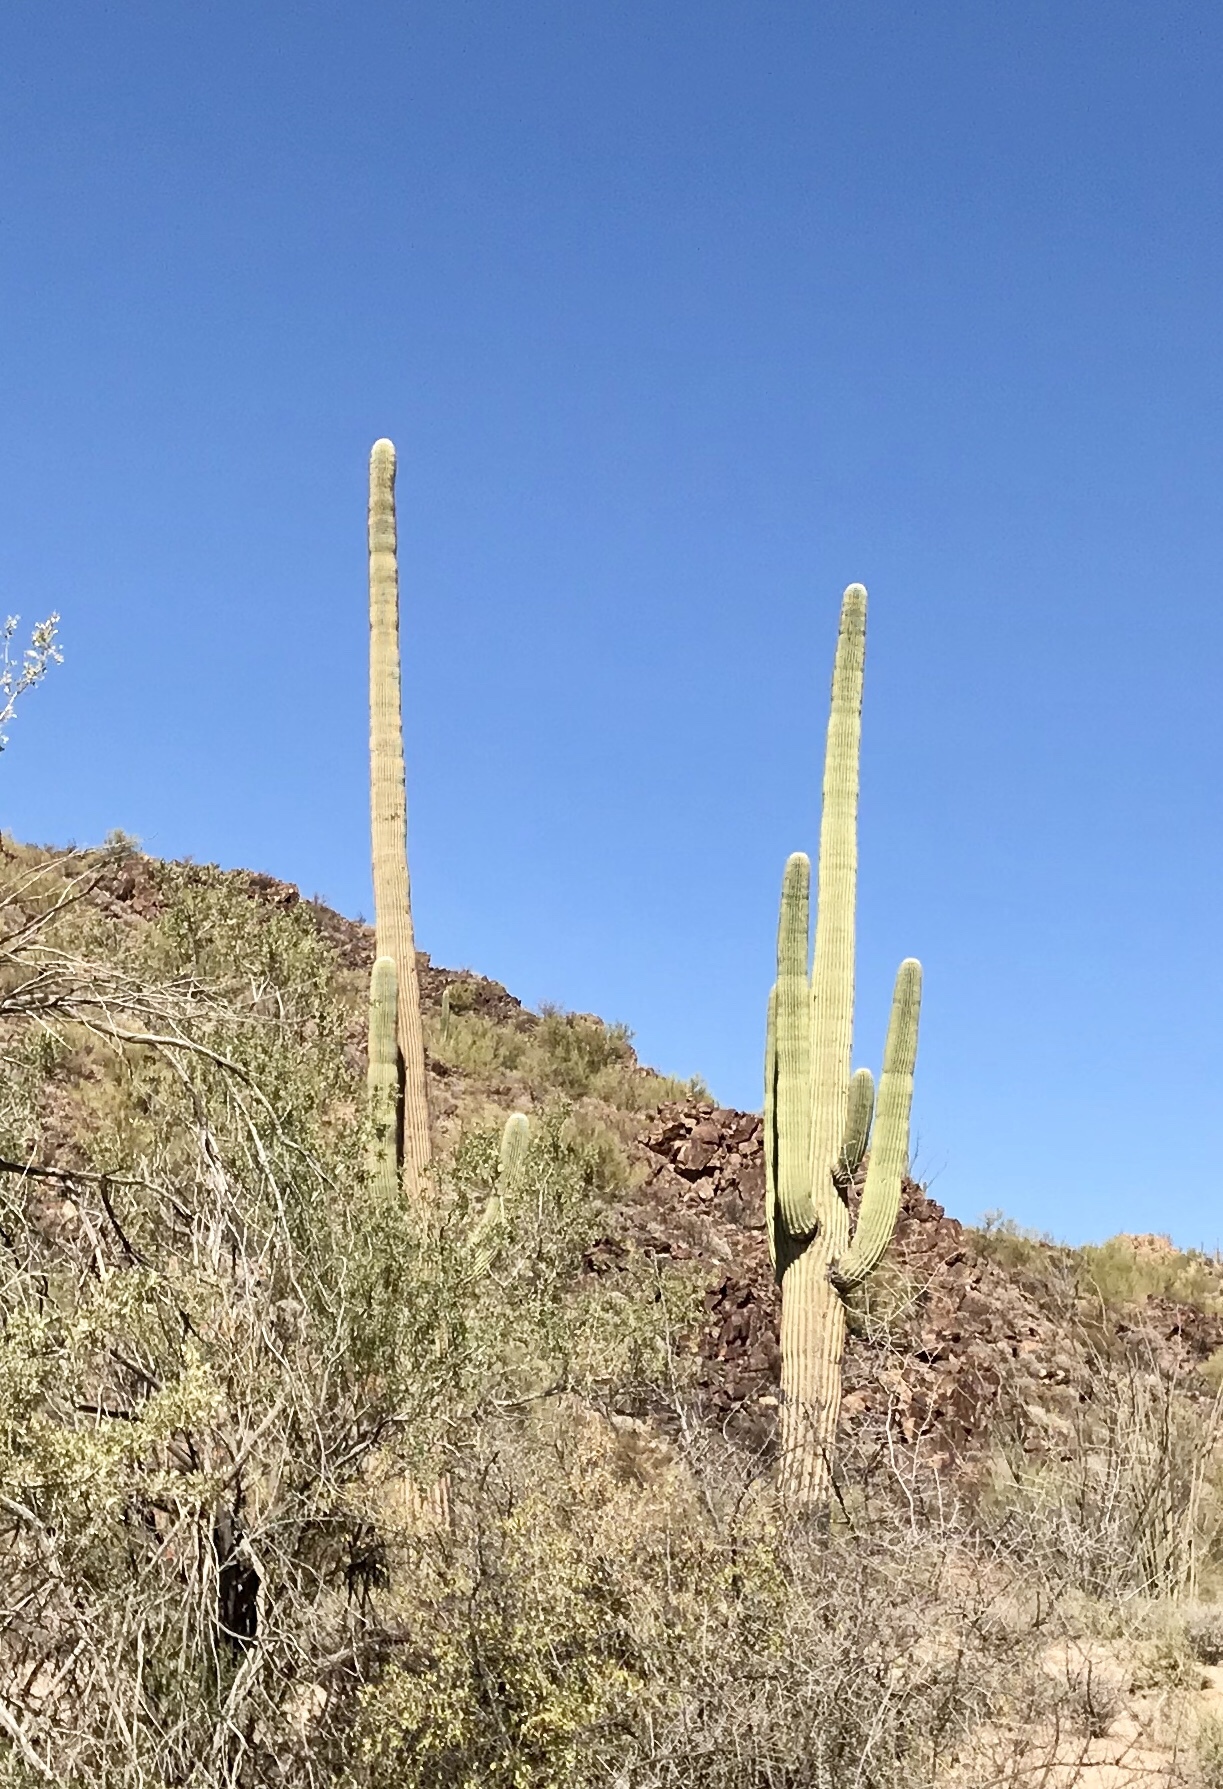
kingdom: Plantae
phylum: Tracheophyta
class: Magnoliopsida
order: Caryophyllales
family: Cactaceae
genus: Carnegiea
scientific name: Carnegiea gigantea
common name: Saguaro
